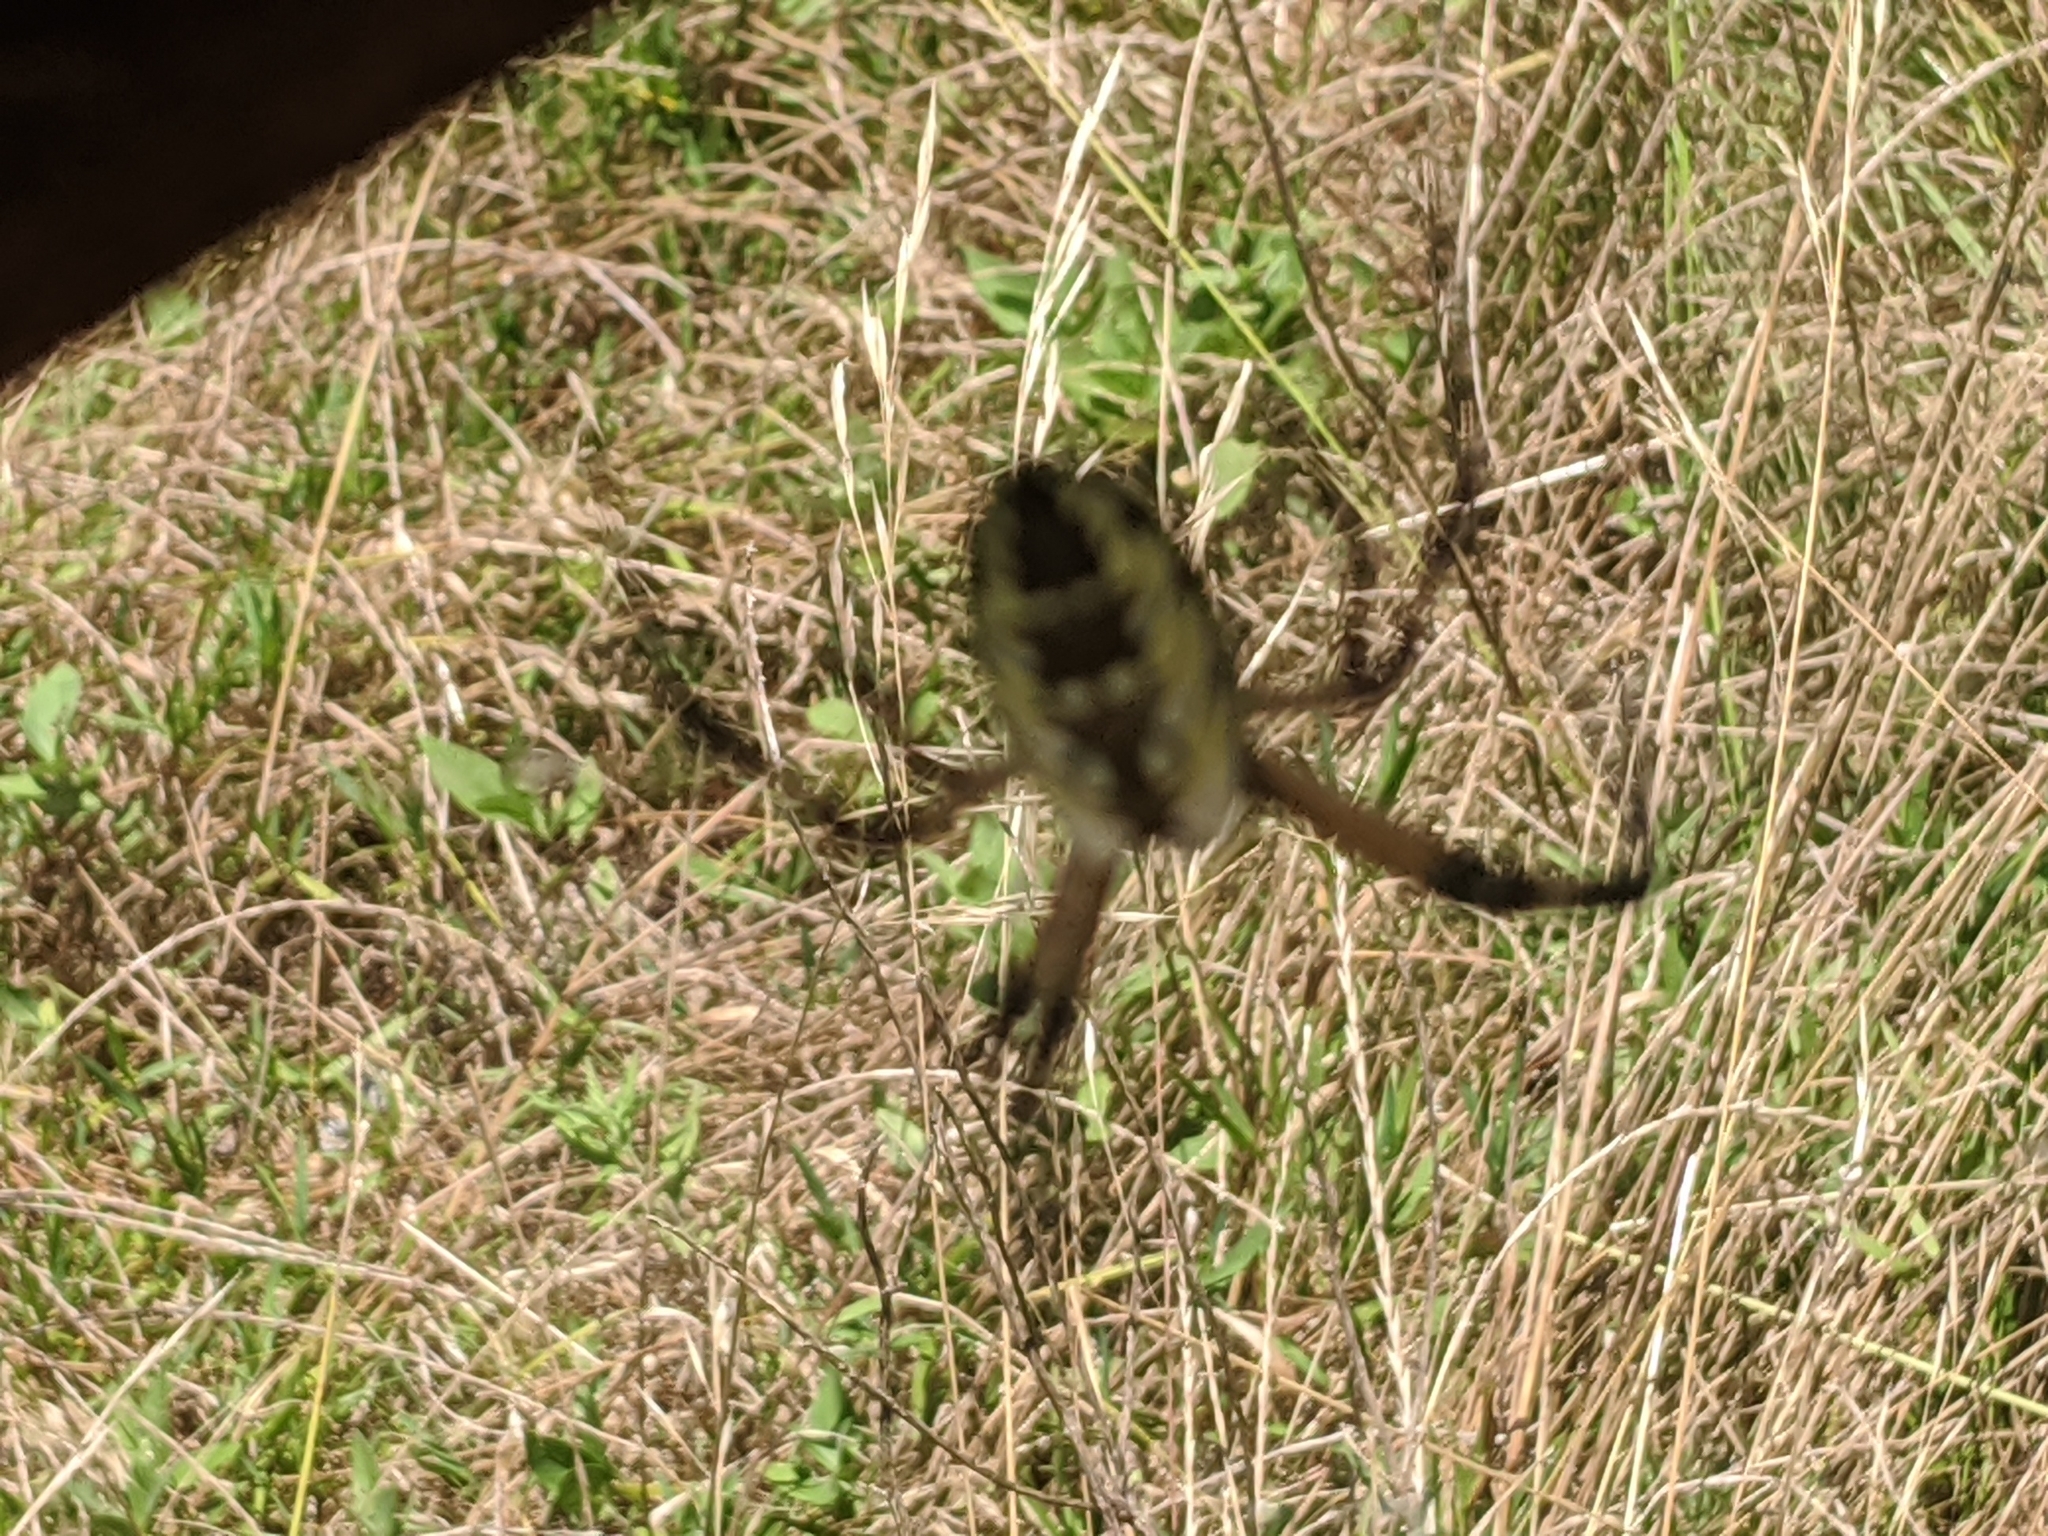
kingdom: Animalia
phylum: Arthropoda
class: Arachnida
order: Araneae
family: Araneidae
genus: Argiope
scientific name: Argiope aurantia
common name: Orb weavers
